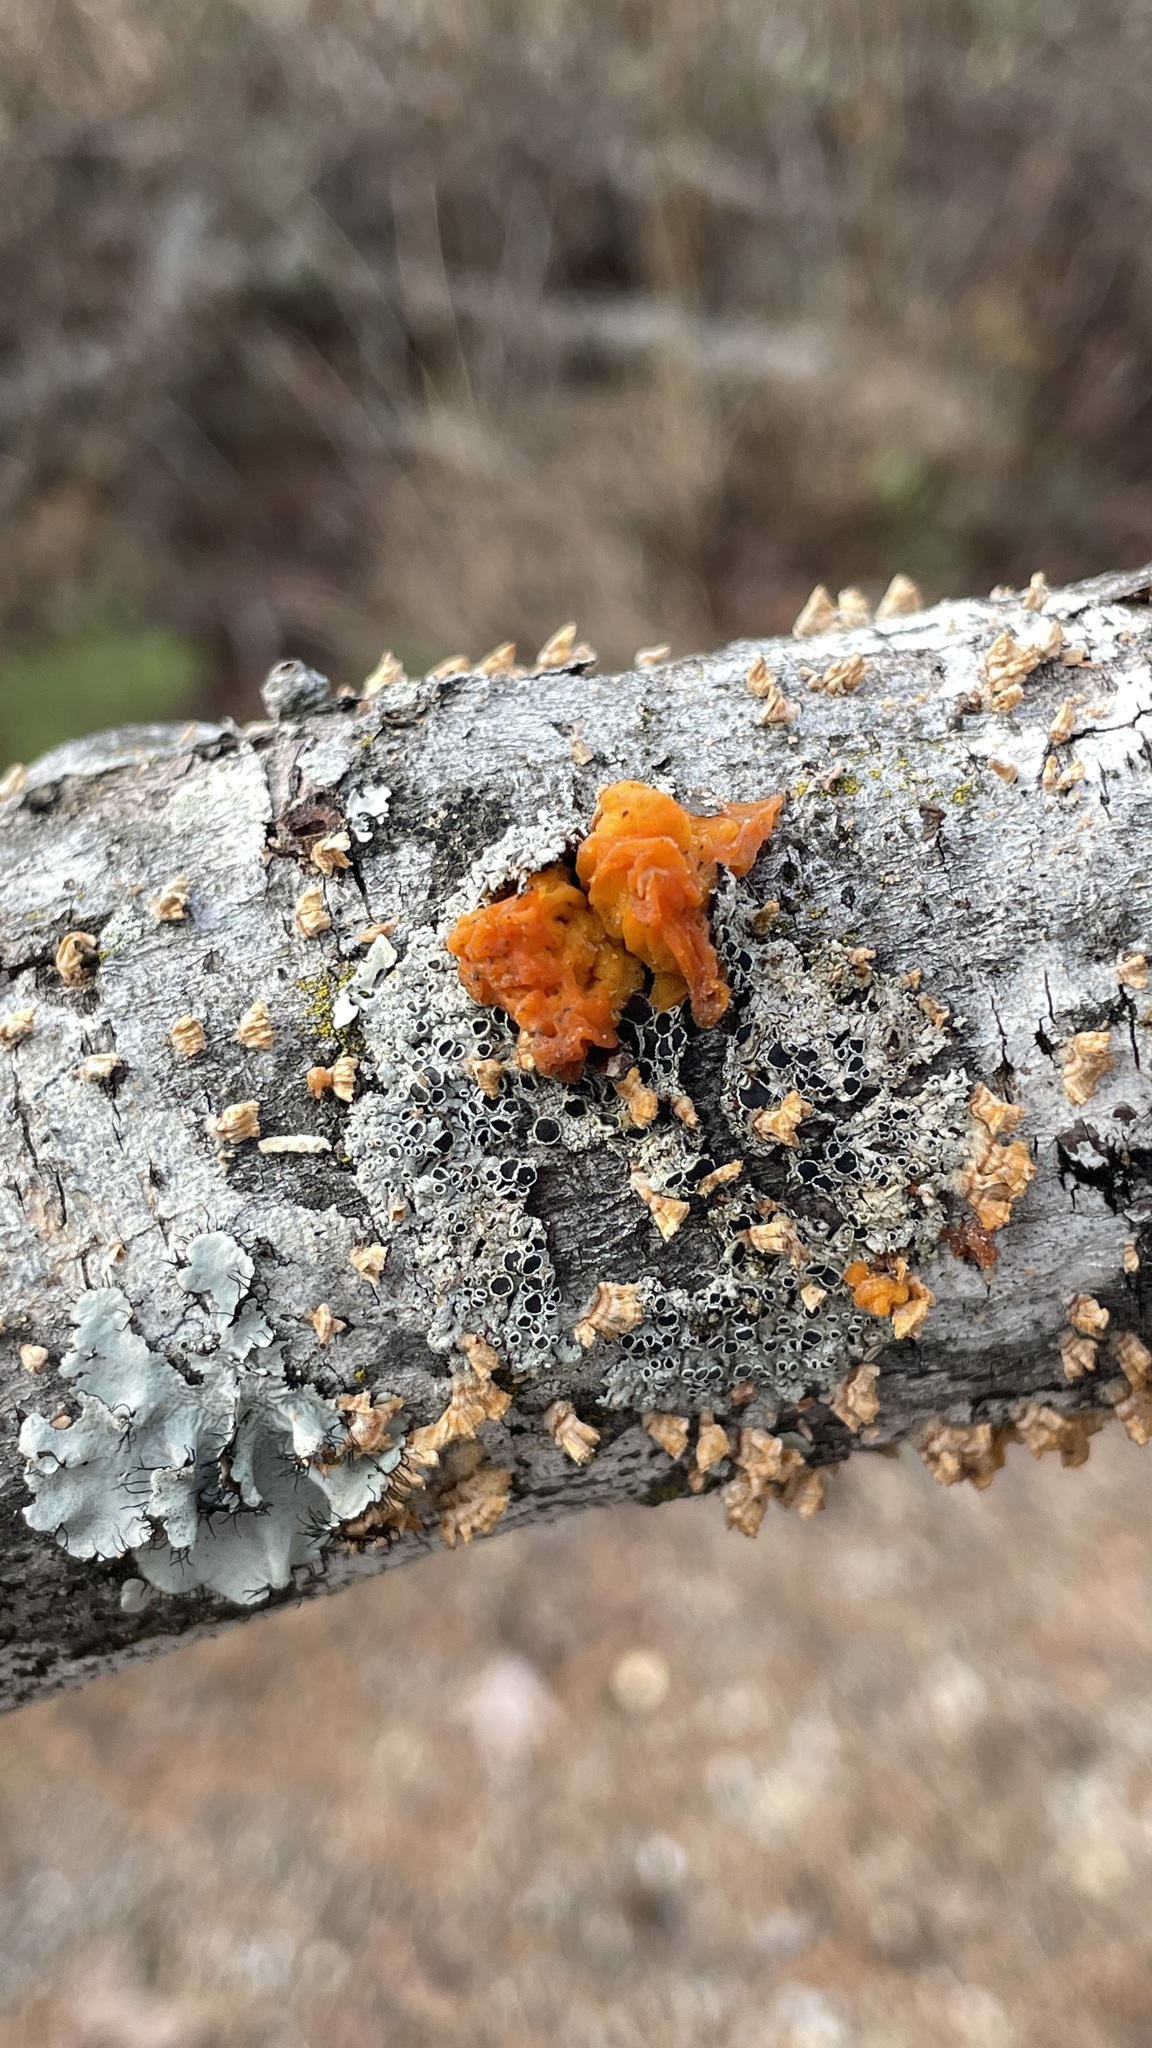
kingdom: Fungi
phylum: Basidiomycota
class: Tremellomycetes
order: Tremellales
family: Naemateliaceae
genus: Naematelia
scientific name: Naematelia aurantia
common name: Golden ear
